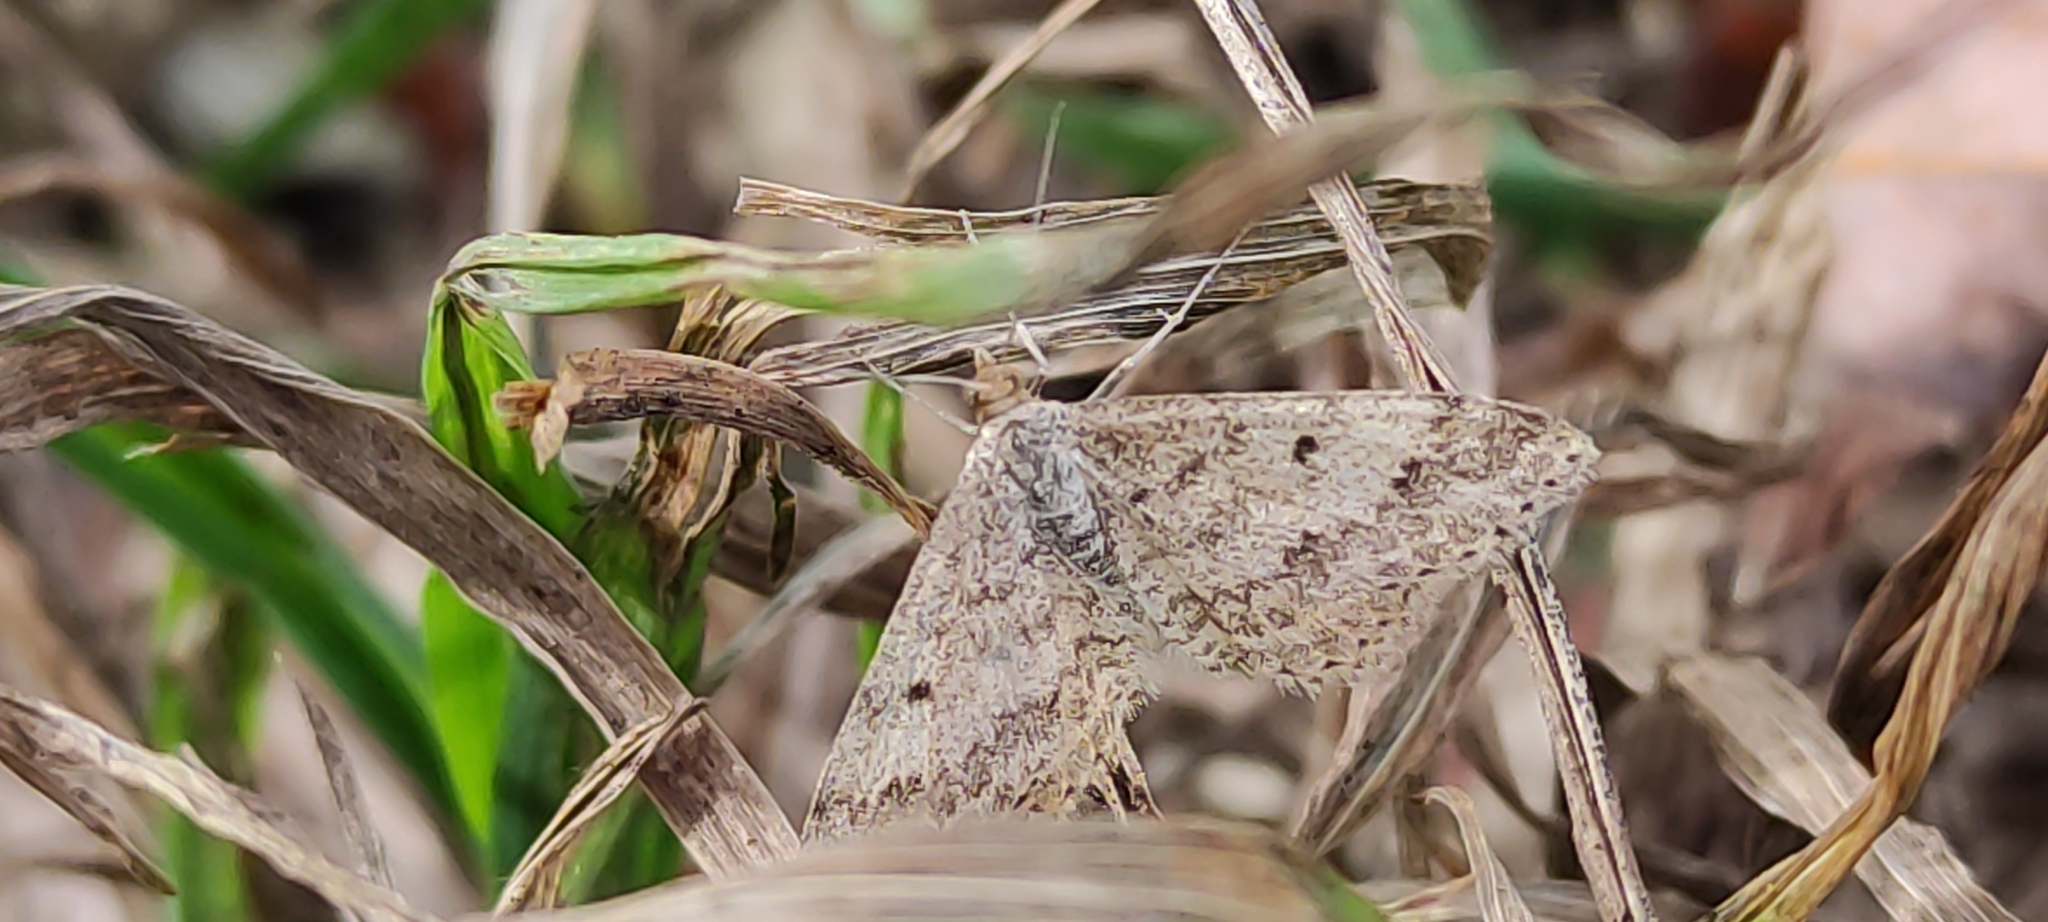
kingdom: Animalia
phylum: Arthropoda
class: Insecta
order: Lepidoptera
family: Geometridae
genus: Scopula
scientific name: Scopula rubraria
